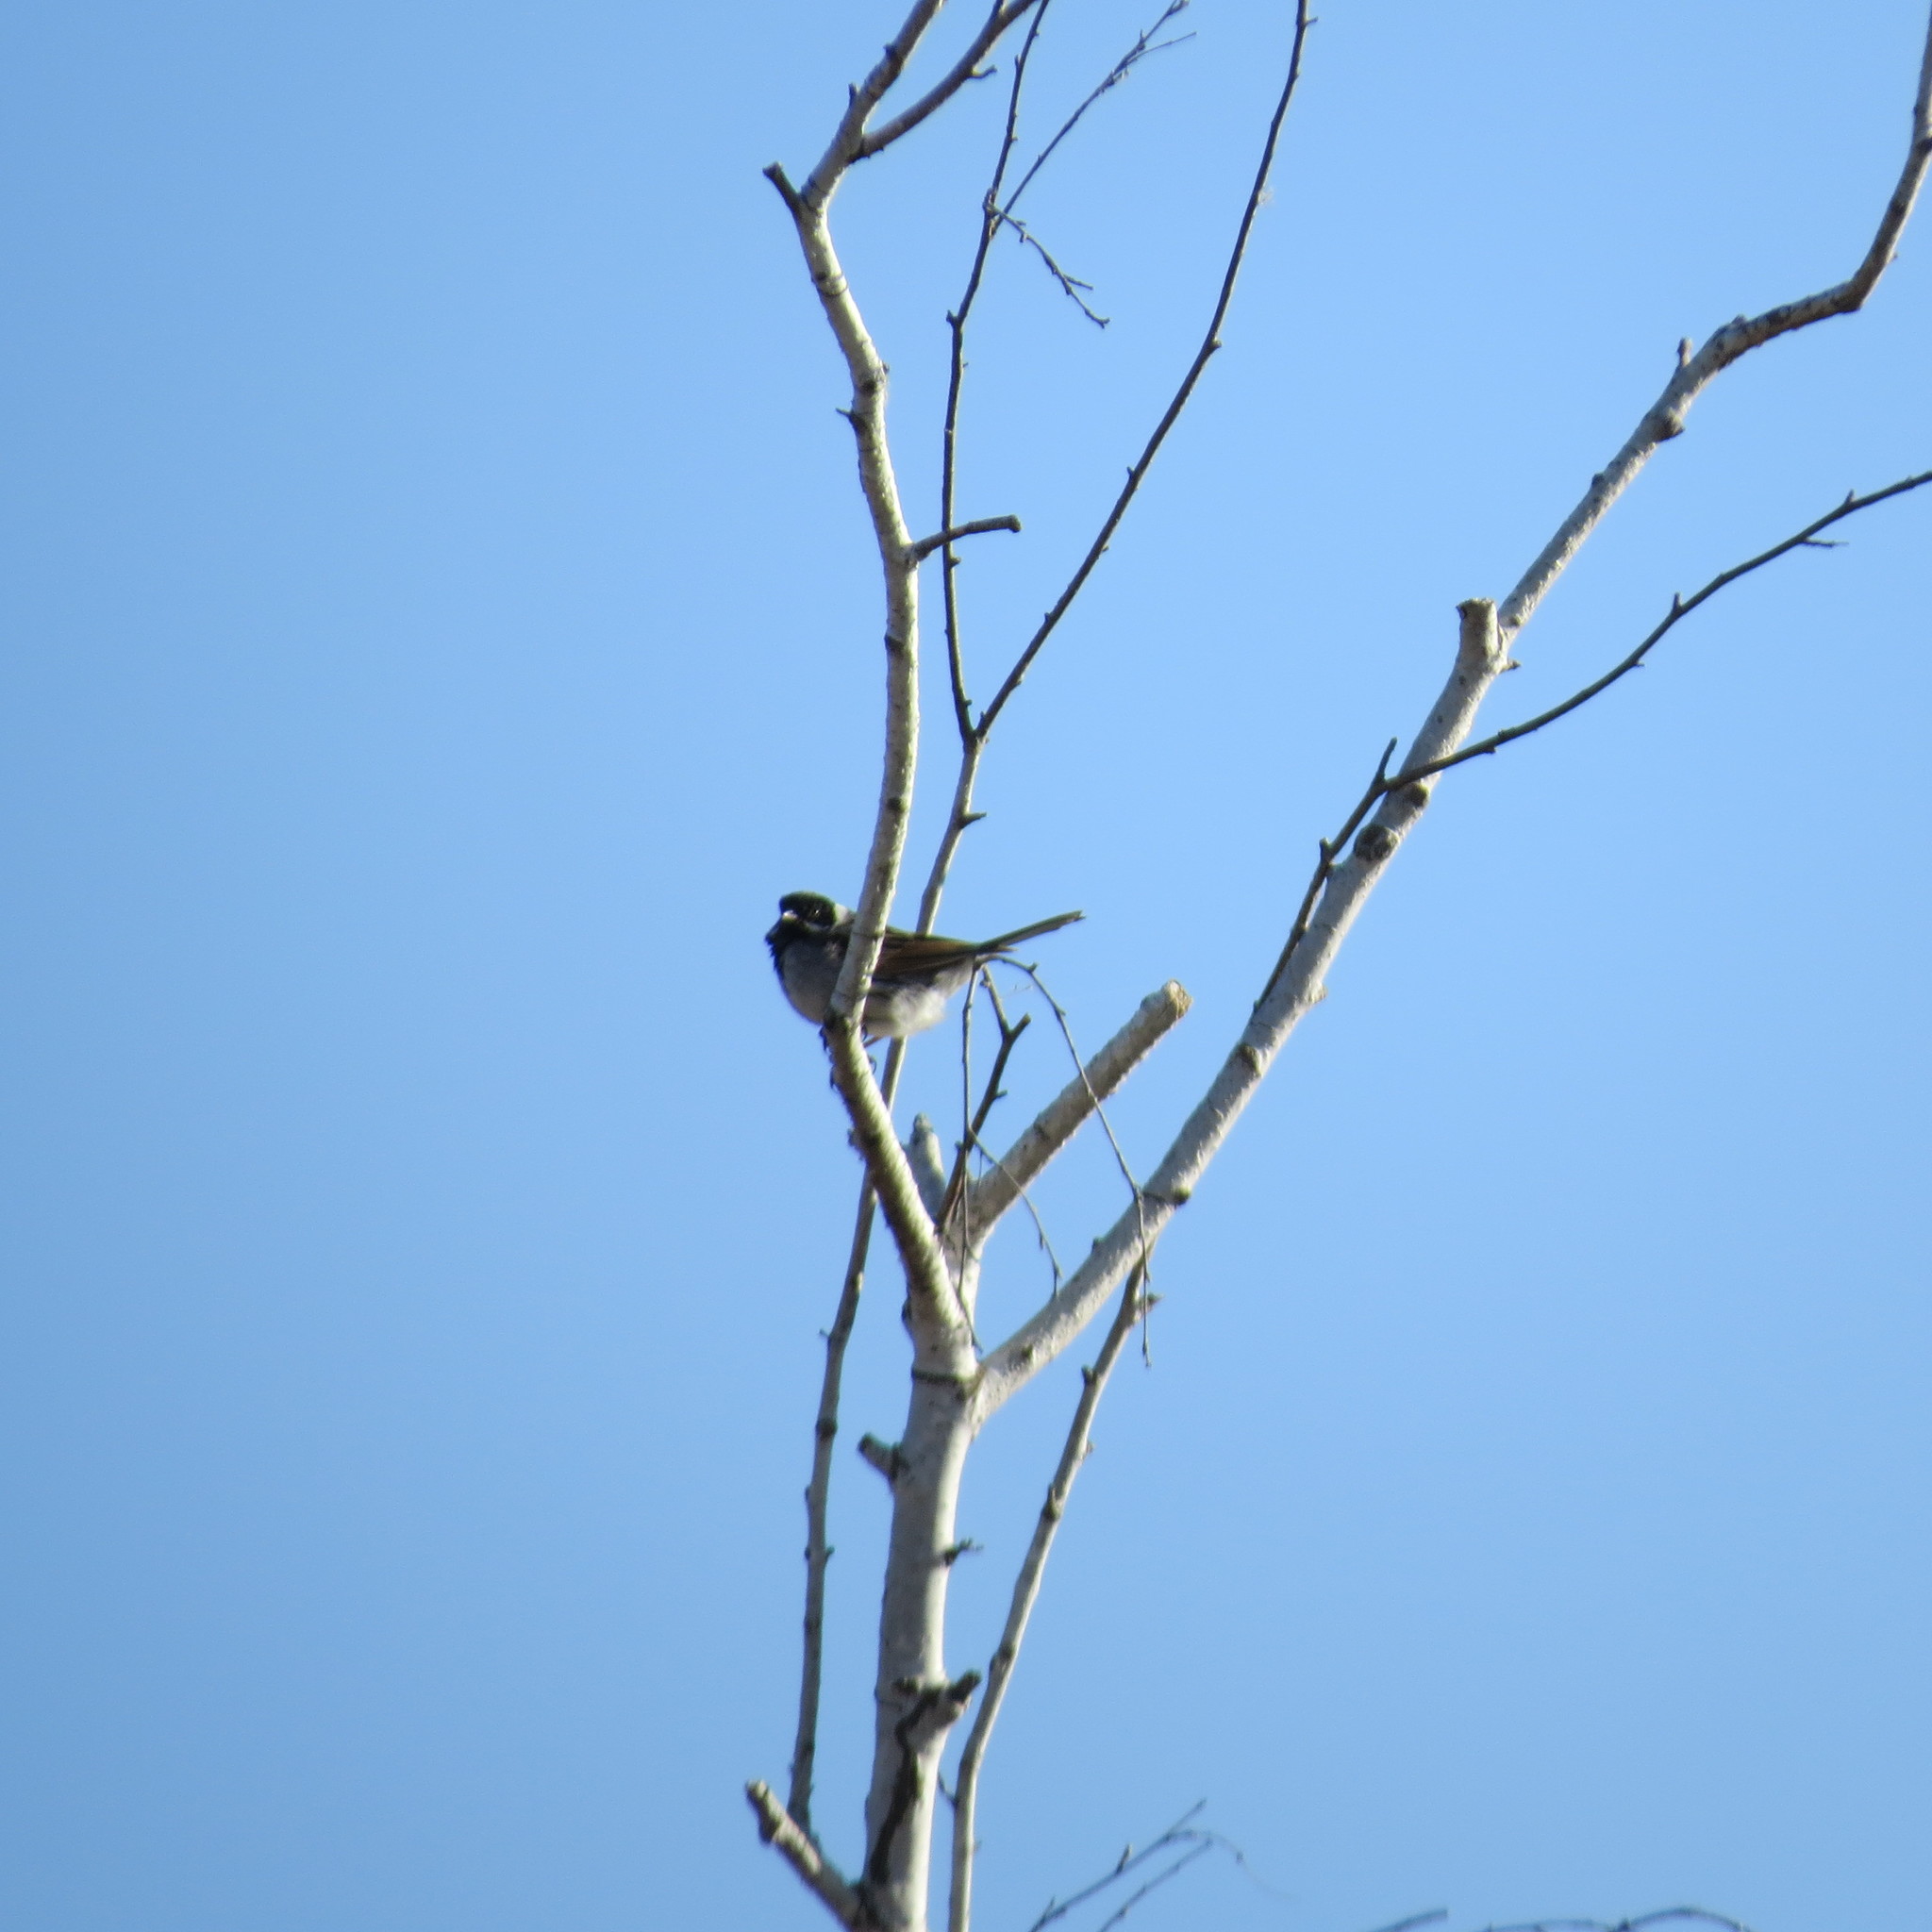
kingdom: Animalia
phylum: Chordata
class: Aves
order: Passeriformes
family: Emberizidae
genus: Emberiza
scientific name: Emberiza schoeniclus
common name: Reed bunting
